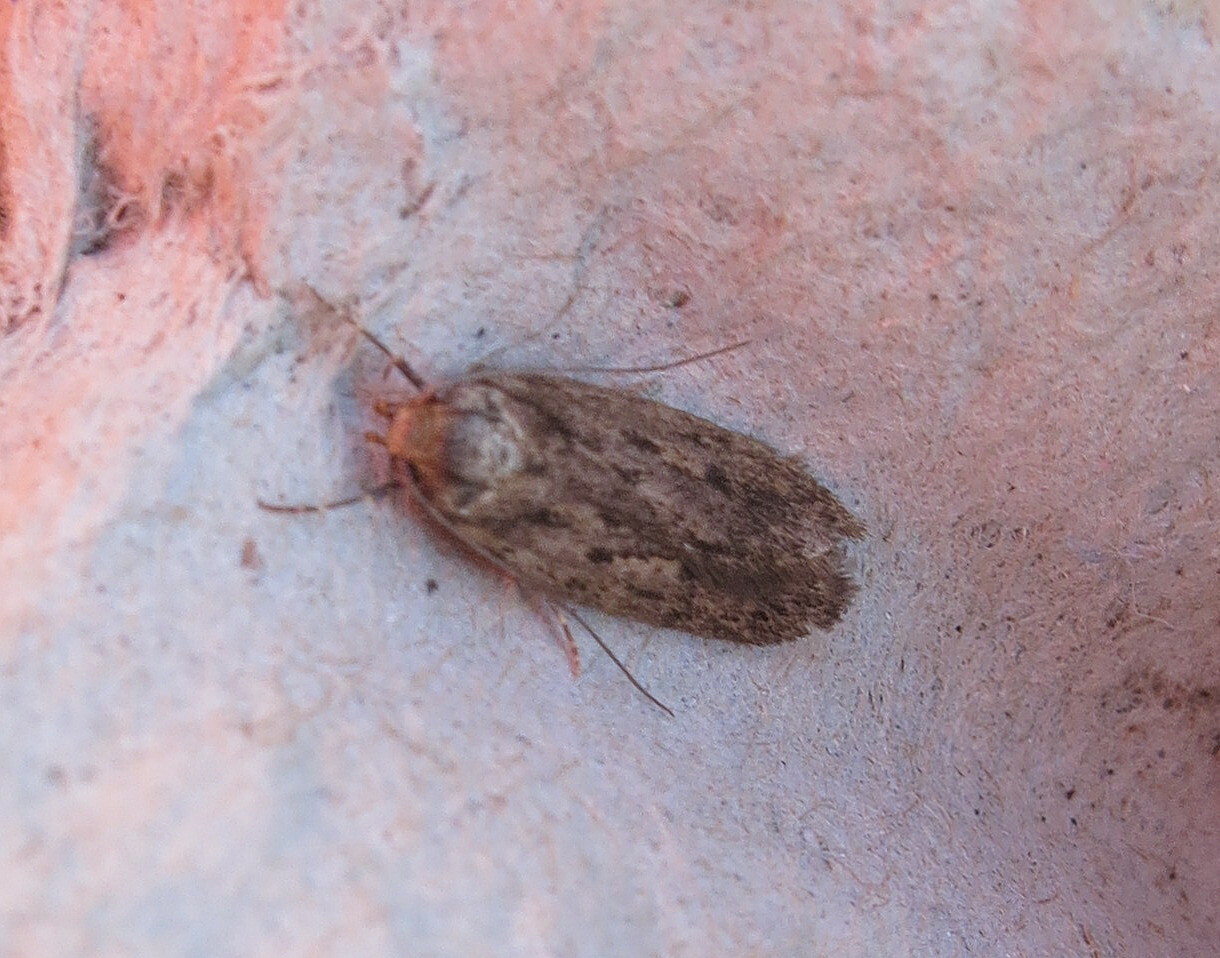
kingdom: Animalia
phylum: Arthropoda
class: Insecta
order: Lepidoptera
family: Oecophoridae
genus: Hofmannophila
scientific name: Hofmannophila pseudospretella
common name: Brown house moth
